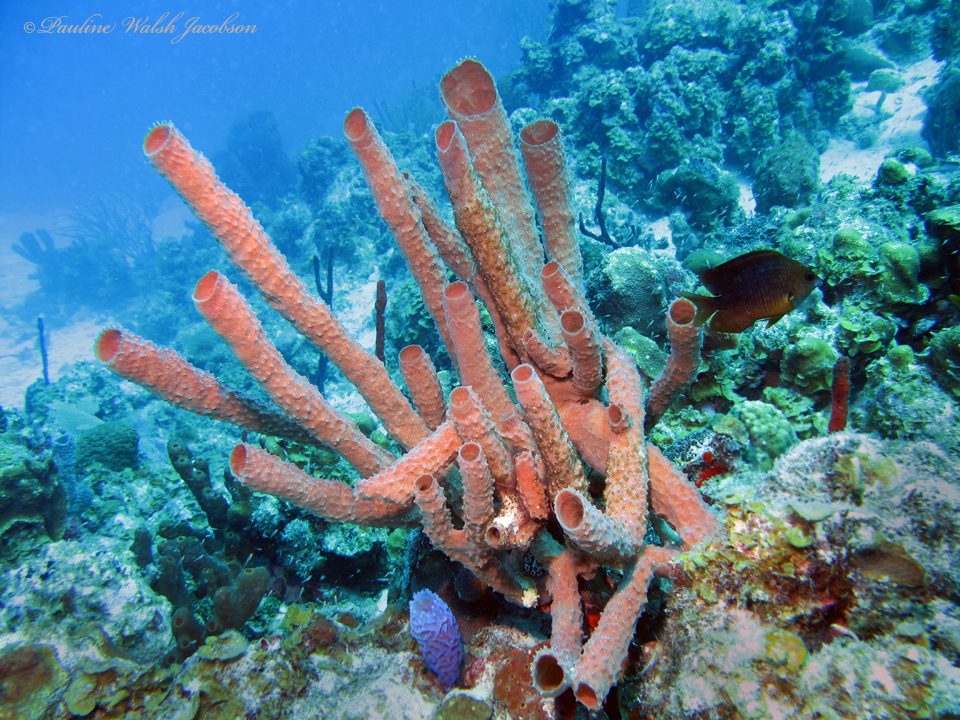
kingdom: Animalia
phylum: Porifera
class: Demospongiae
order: Haplosclerida
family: Callyspongiidae
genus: Callyspongia
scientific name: Callyspongia aculeata
